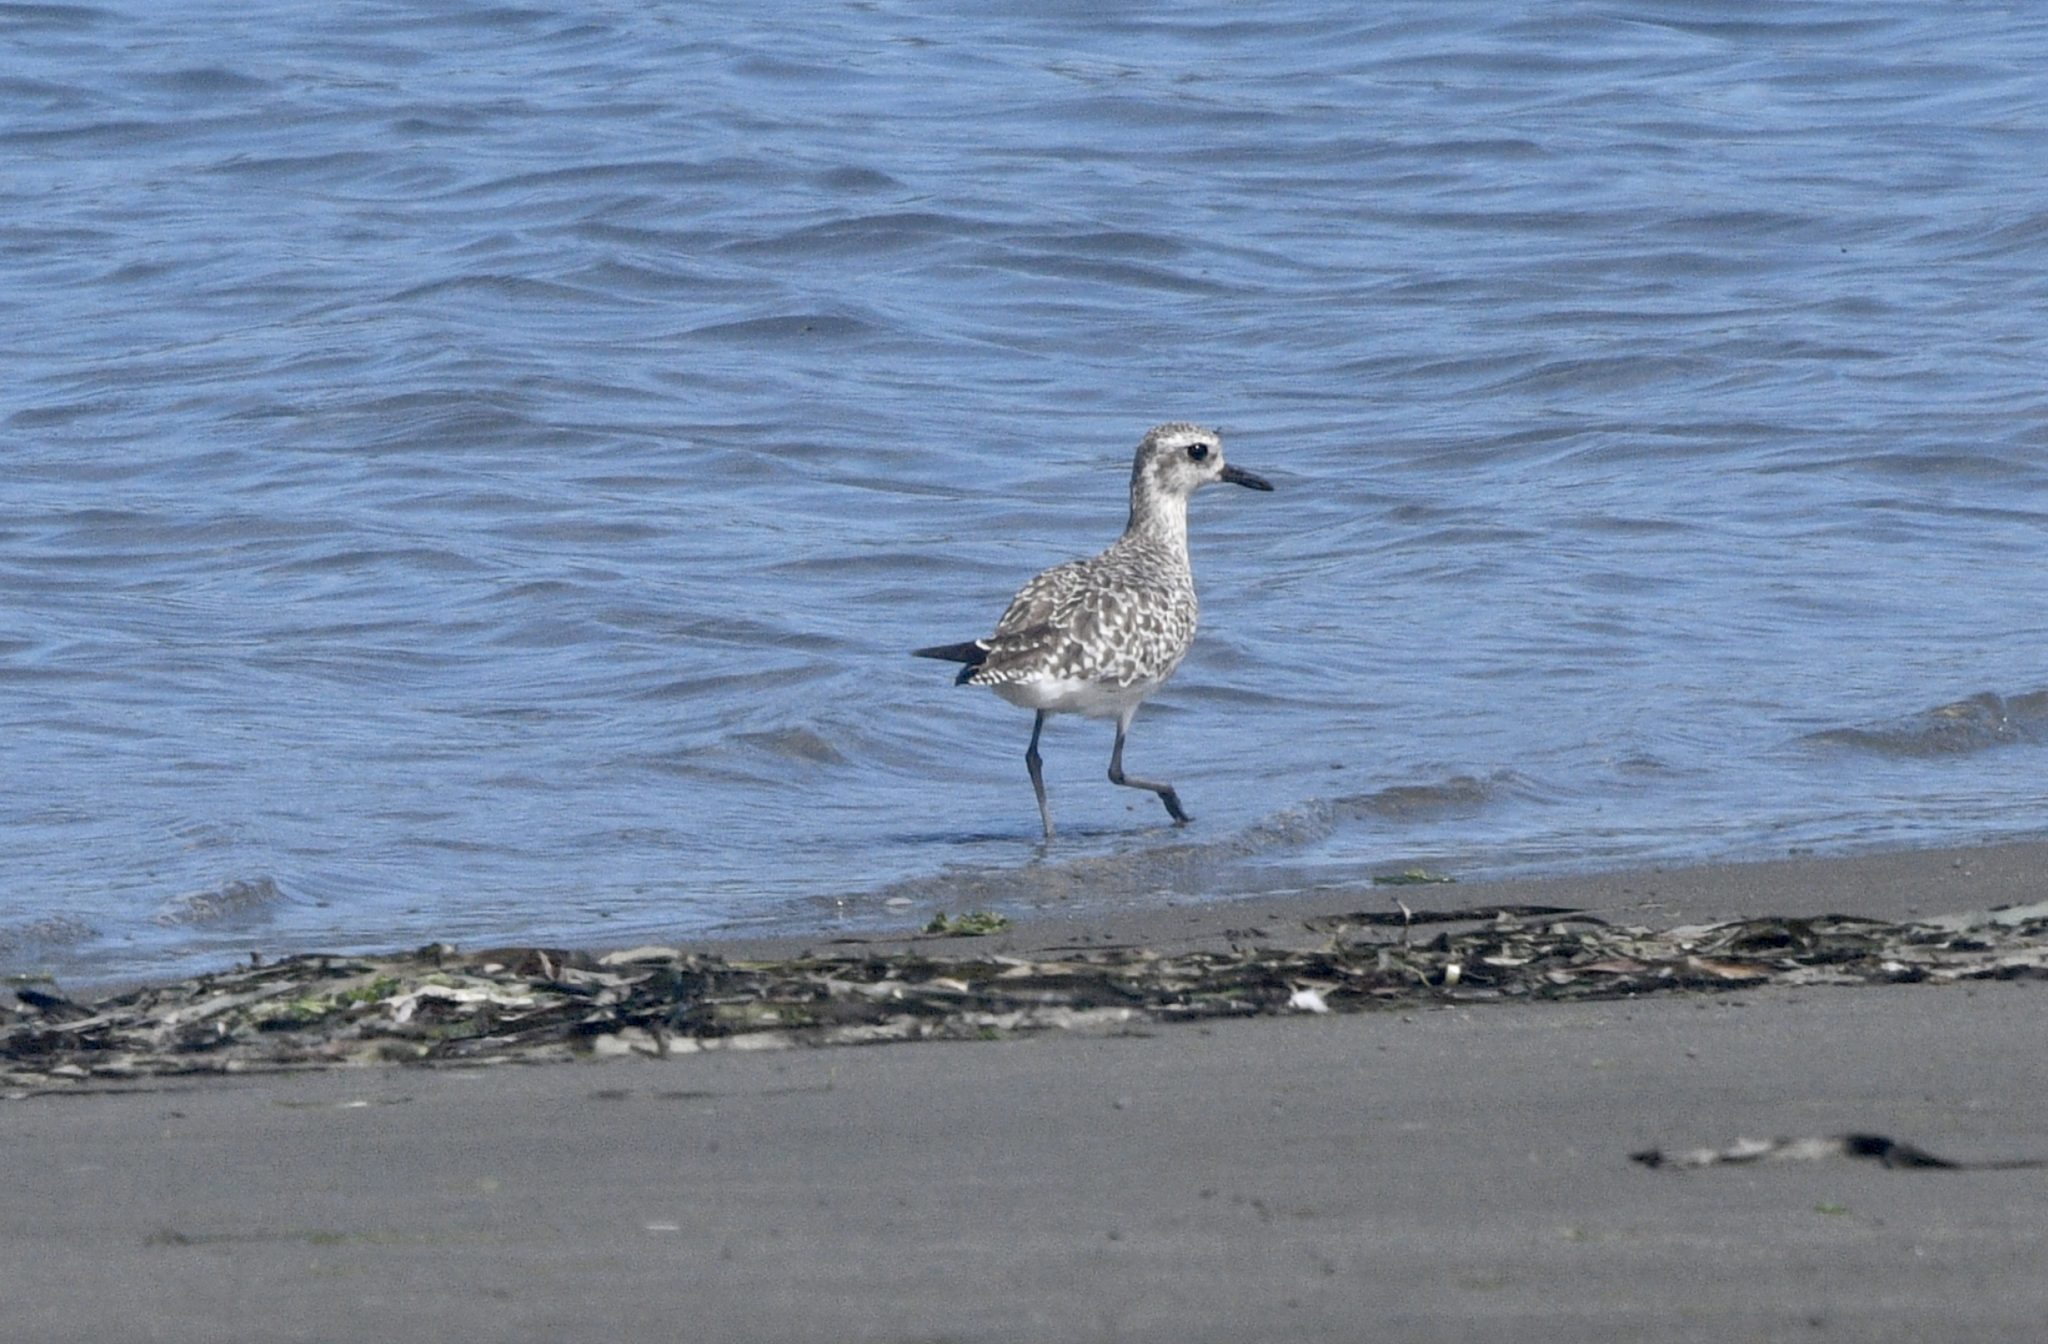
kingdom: Animalia
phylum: Chordata
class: Aves
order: Charadriiformes
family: Charadriidae
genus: Pluvialis
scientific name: Pluvialis squatarola
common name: Grey plover
